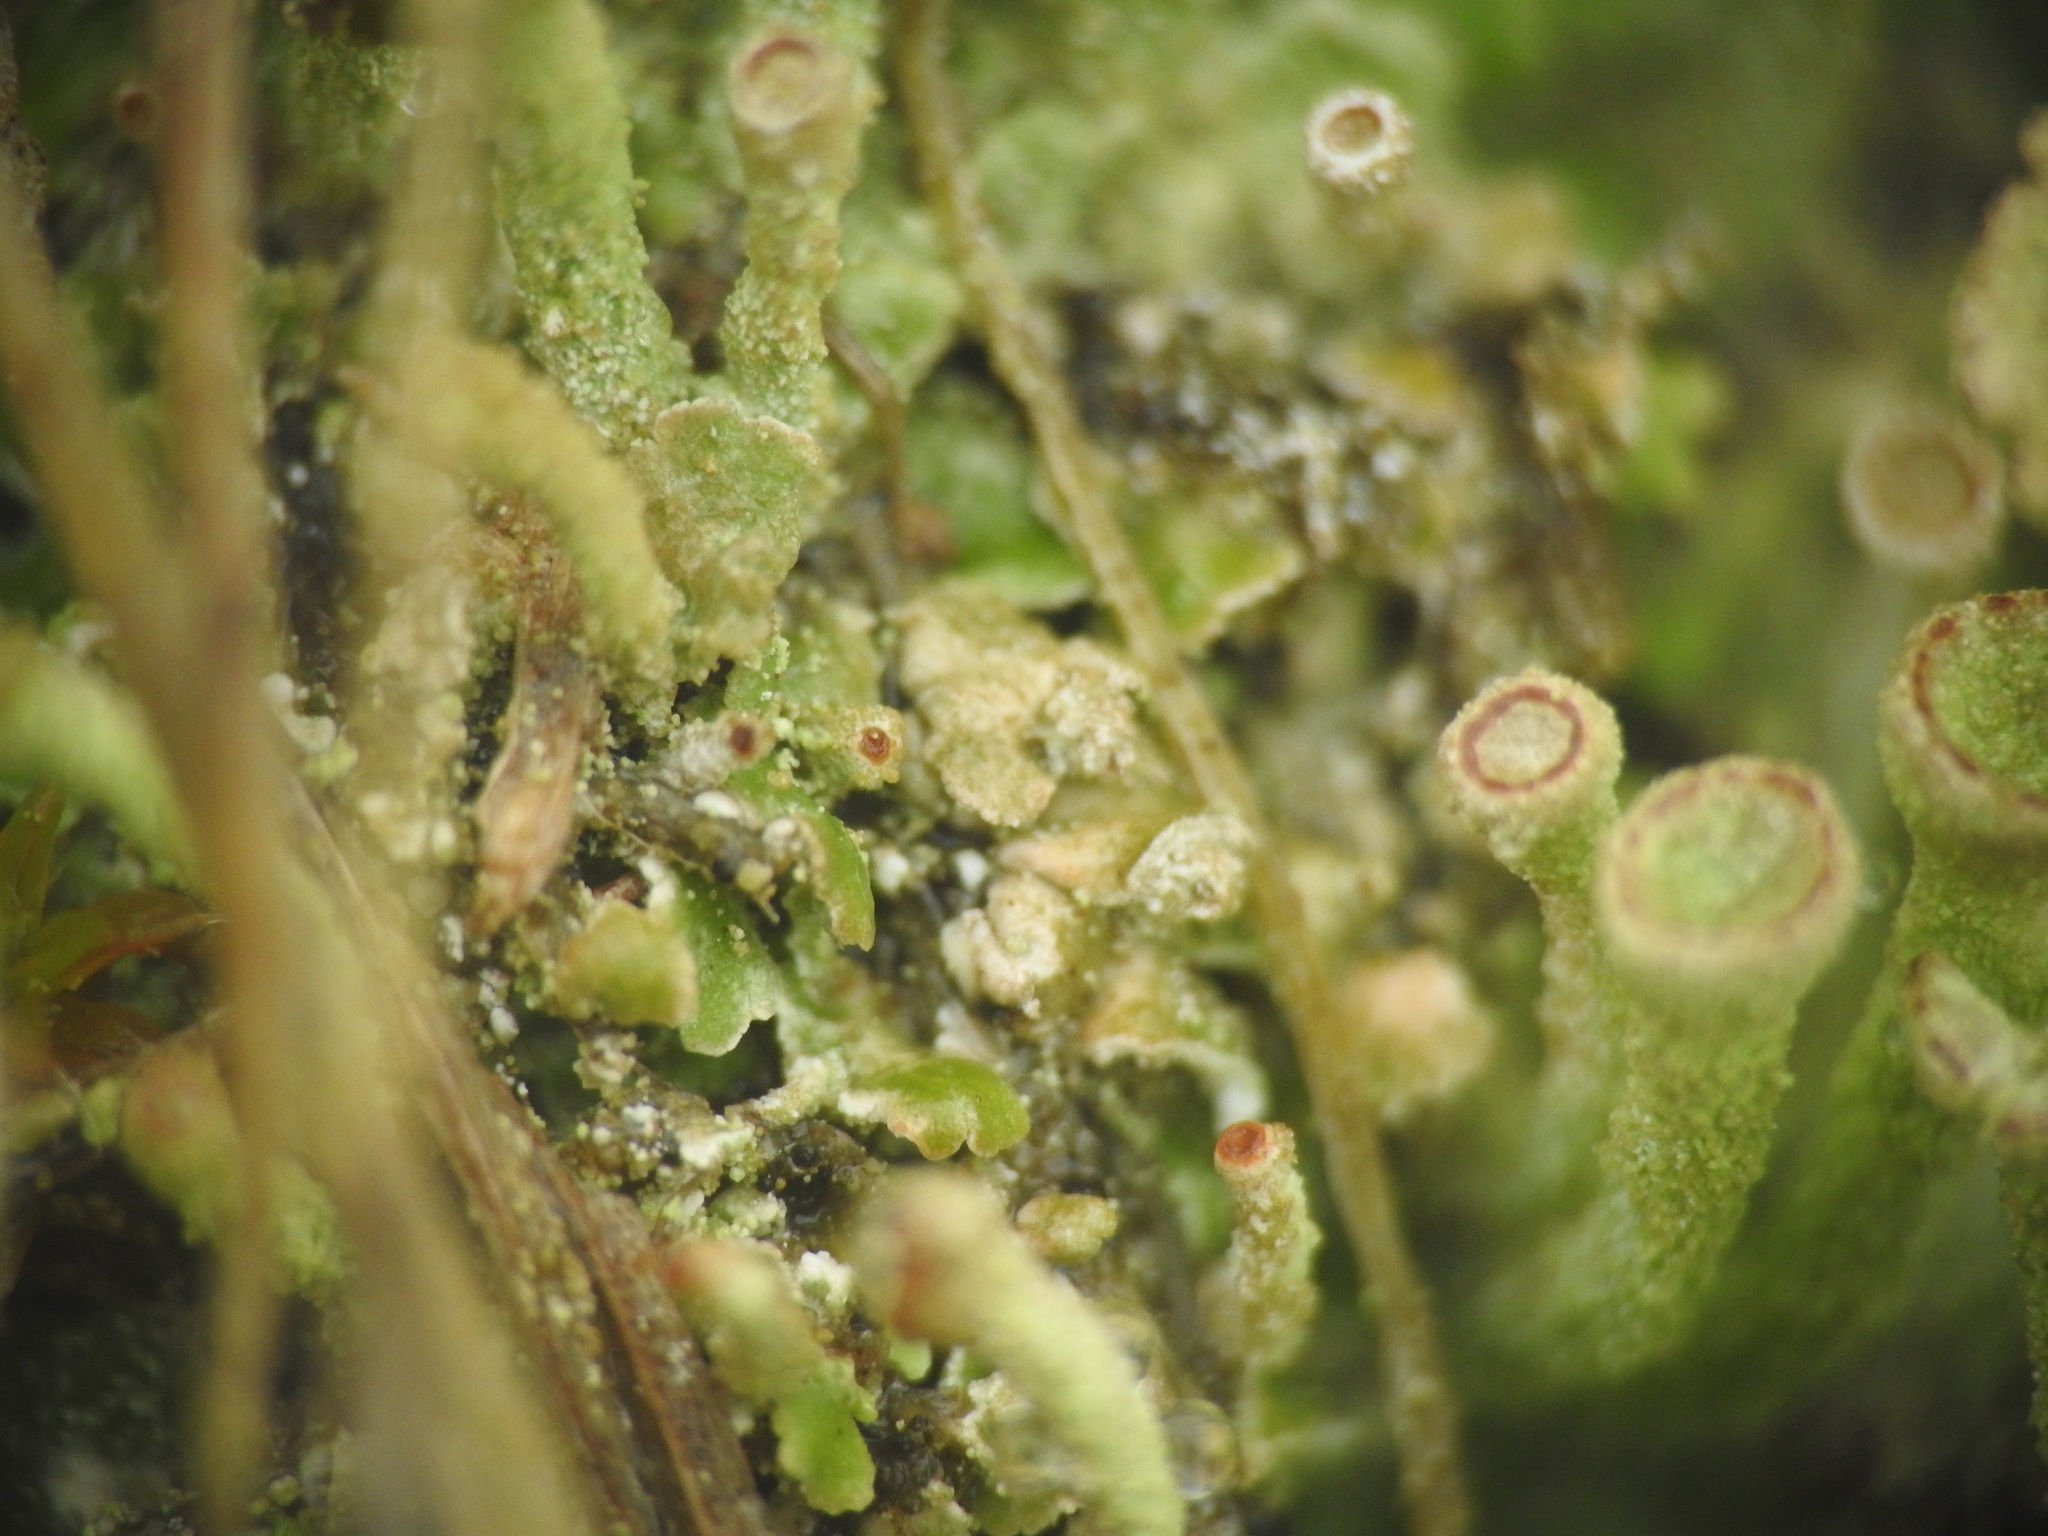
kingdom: Fungi
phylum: Ascomycota
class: Lecanoromycetes
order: Lecanorales
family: Cladoniaceae
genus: Cladonia
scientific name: Cladonia fimbriata
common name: Powdered trumpet lichen
